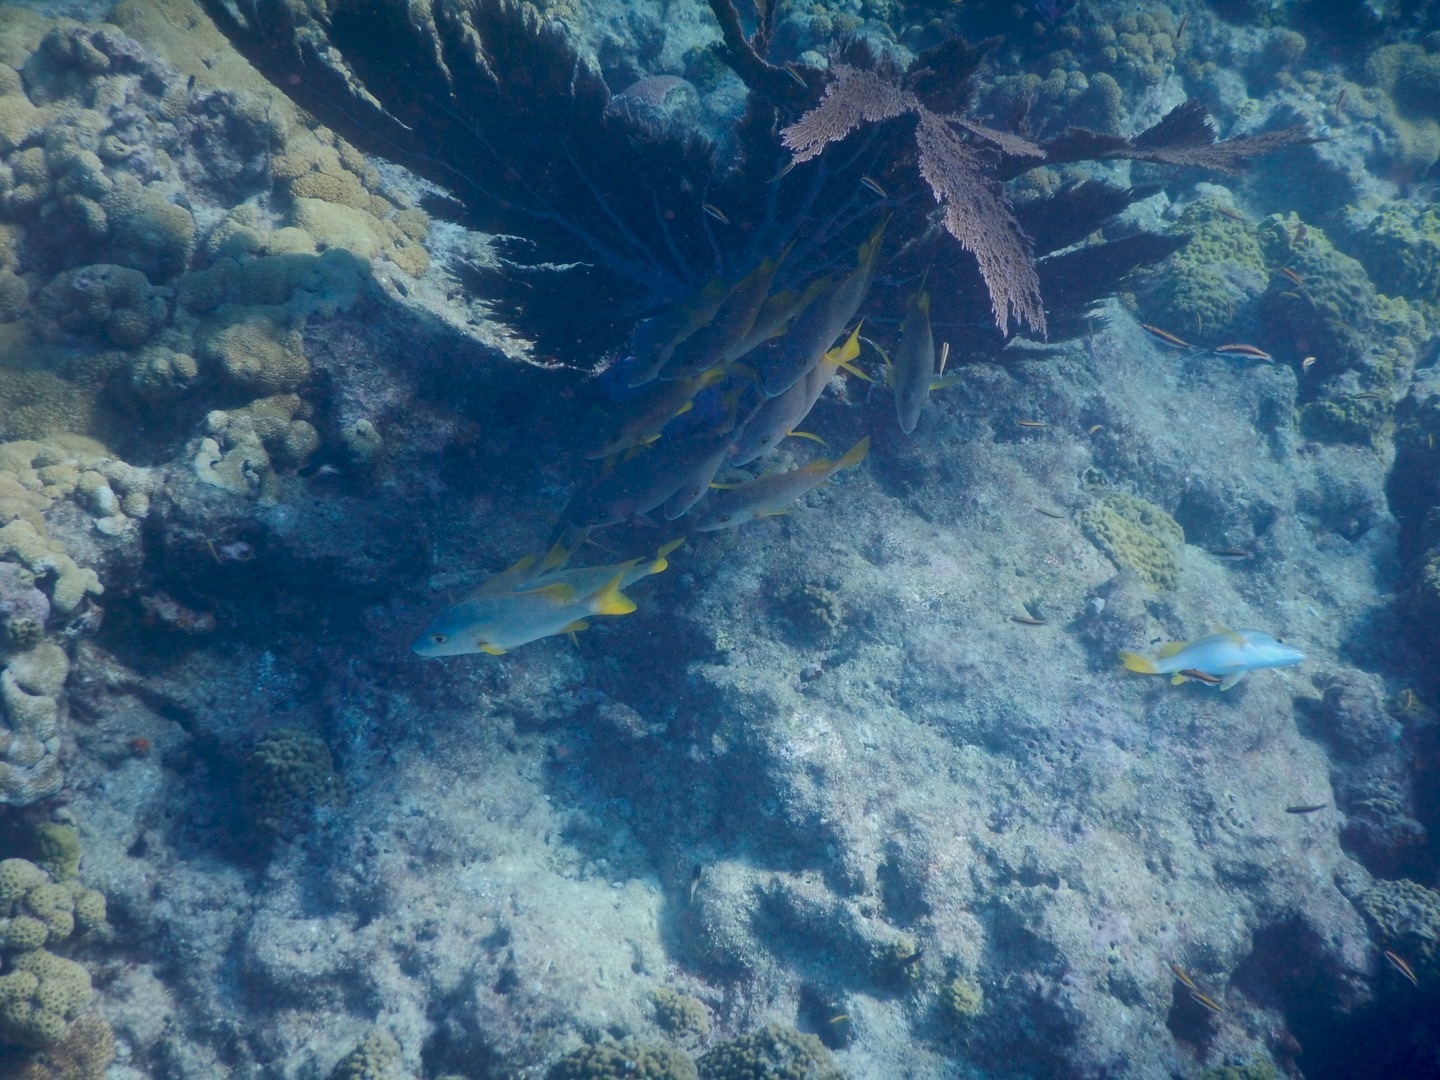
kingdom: Animalia
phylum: Chordata
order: Perciformes
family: Lutjanidae
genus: Lutjanus
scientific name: Lutjanus apodus
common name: Schoolmaster
